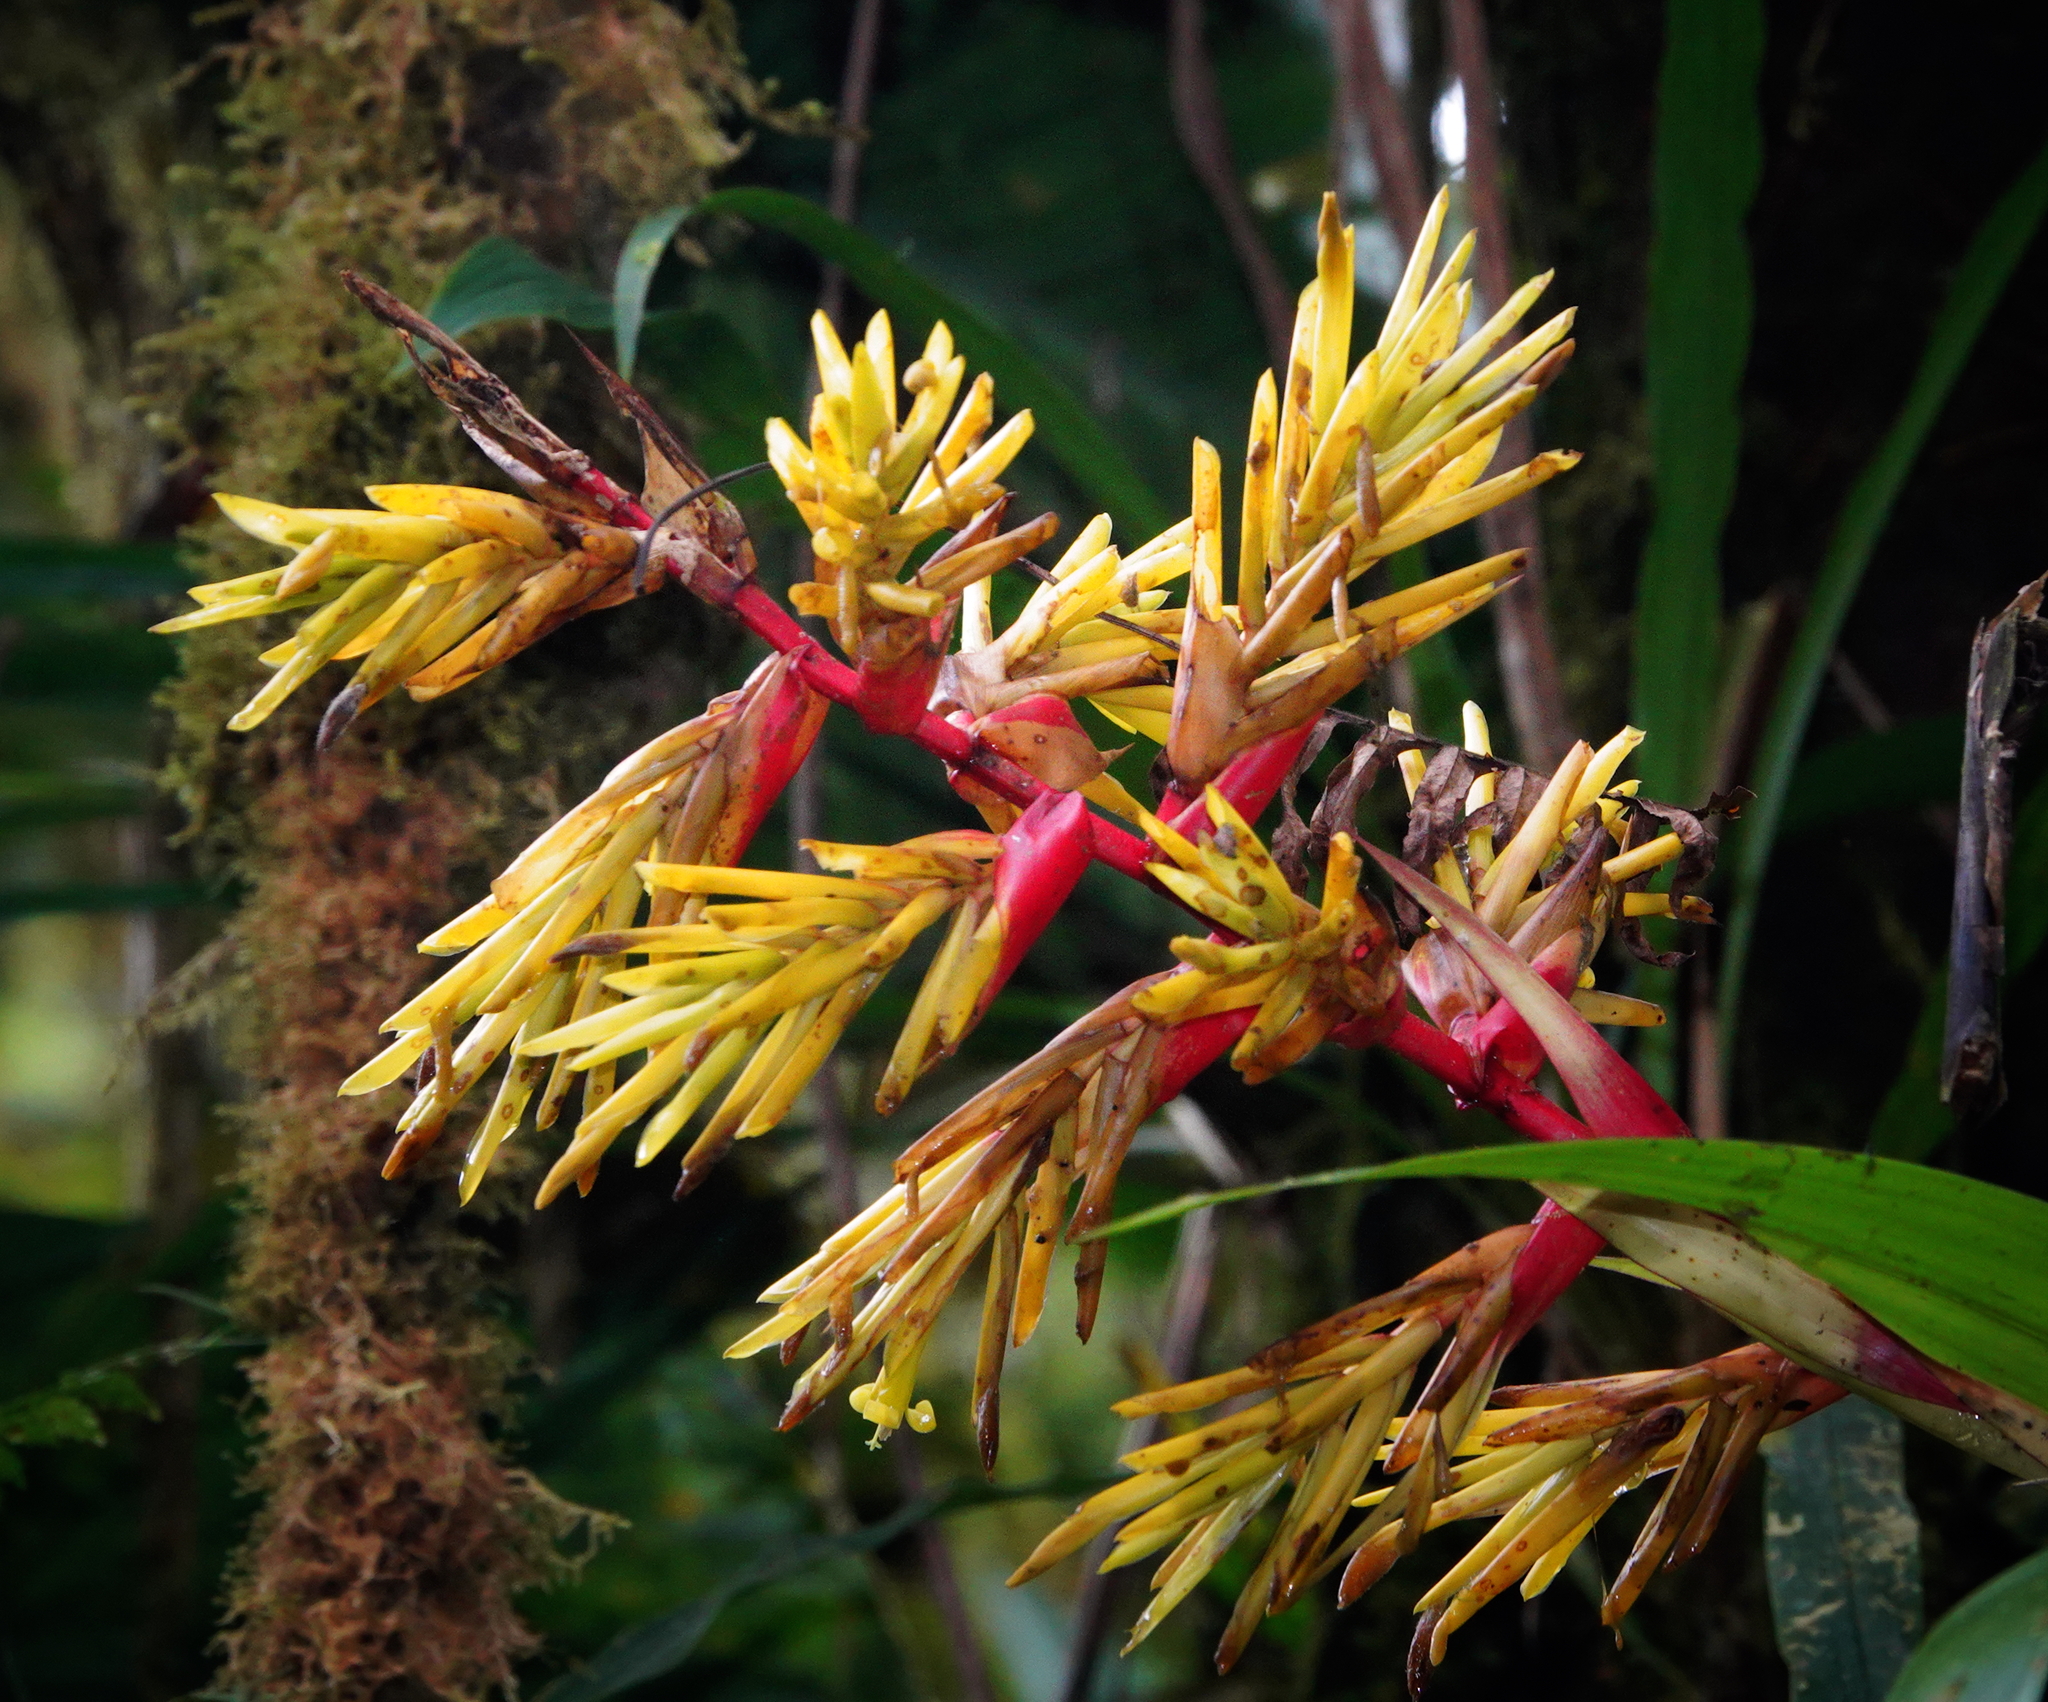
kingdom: Plantae
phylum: Tracheophyta
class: Liliopsida
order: Poales
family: Bromeliaceae
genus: Guzmania
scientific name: Guzmania xanthobractea
